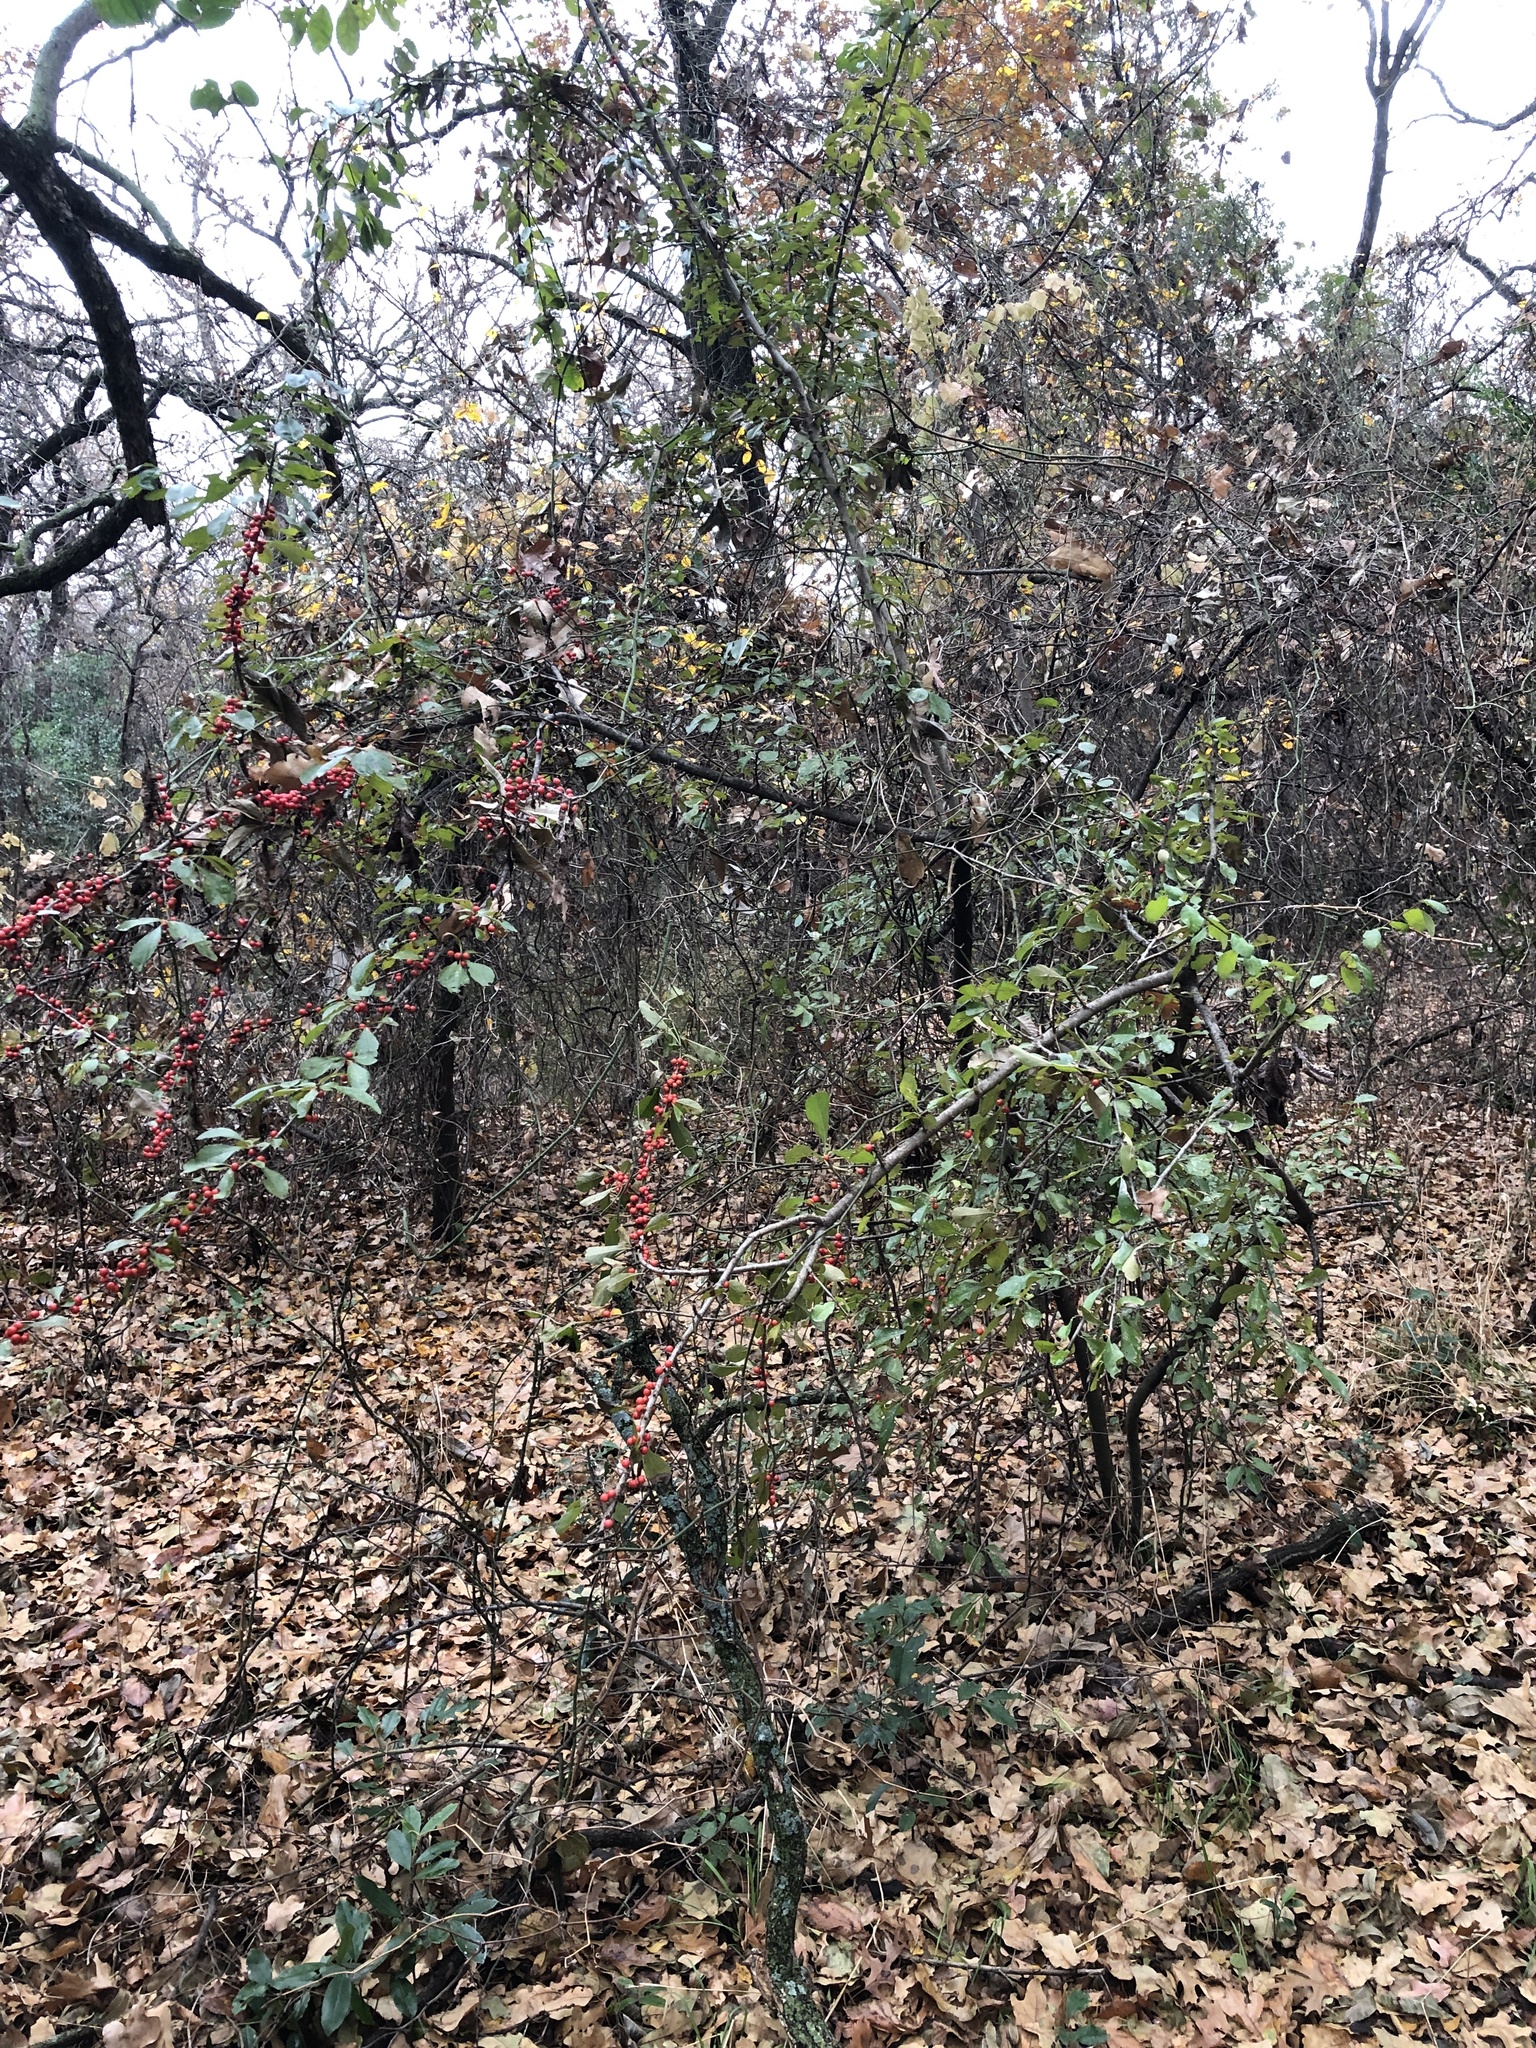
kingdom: Plantae
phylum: Tracheophyta
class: Magnoliopsida
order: Aquifoliales
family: Aquifoliaceae
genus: Ilex
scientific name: Ilex decidua
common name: Possum-haw
